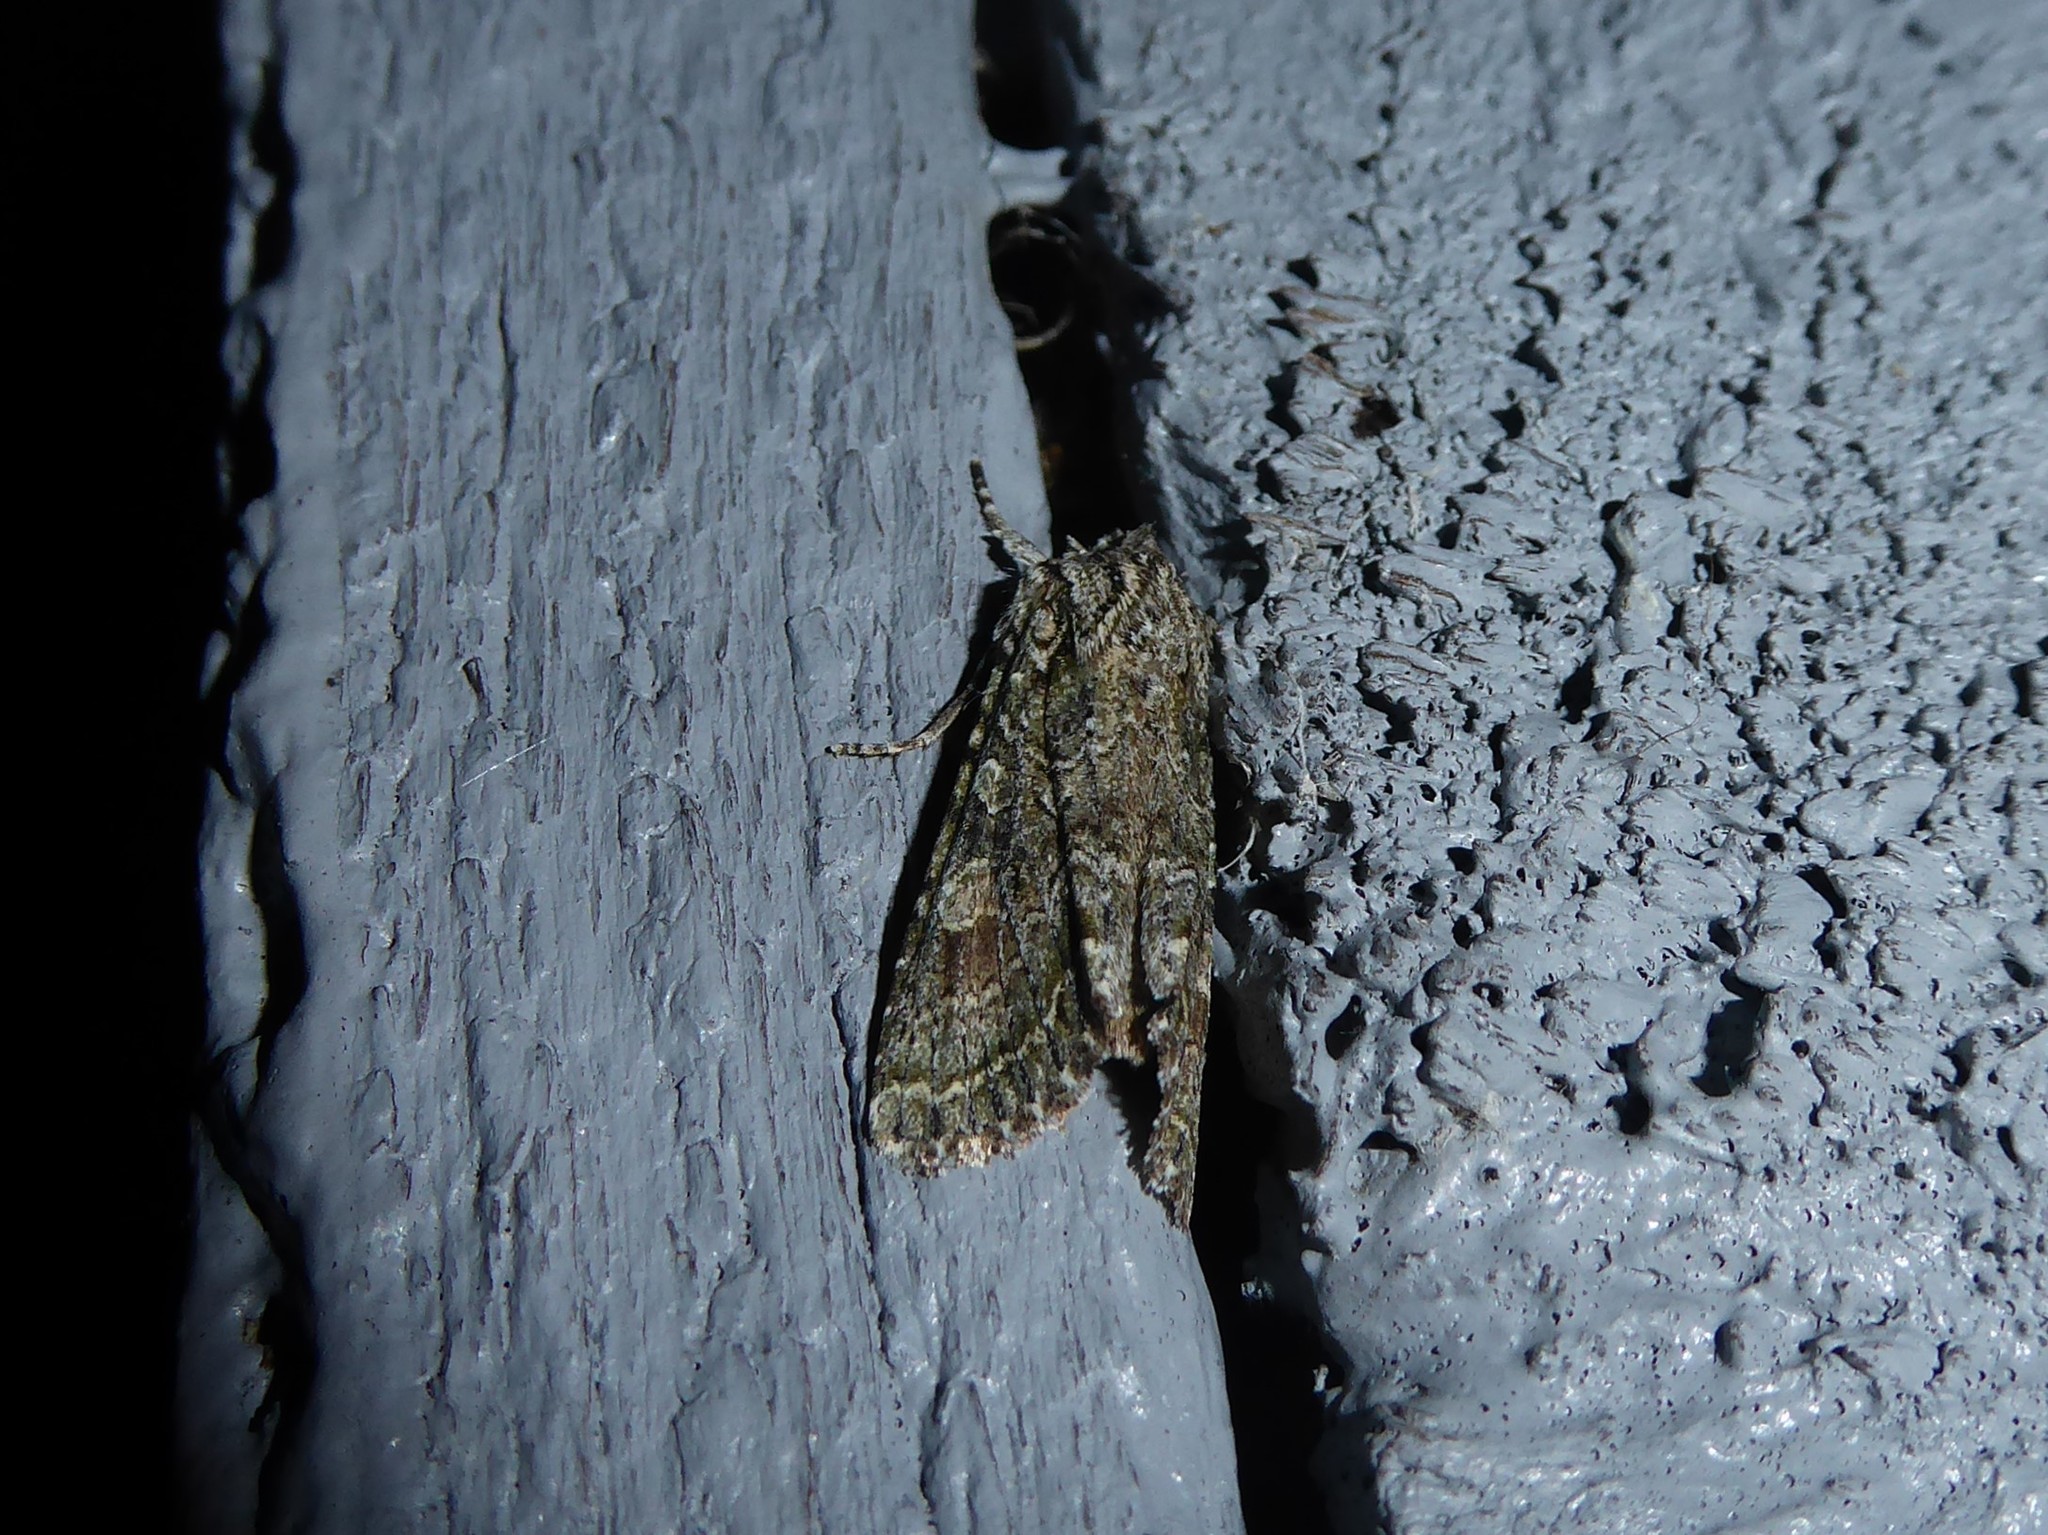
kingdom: Animalia
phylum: Arthropoda
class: Insecta
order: Lepidoptera
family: Noctuidae
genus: Ichneutica
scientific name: Ichneutica mutans
